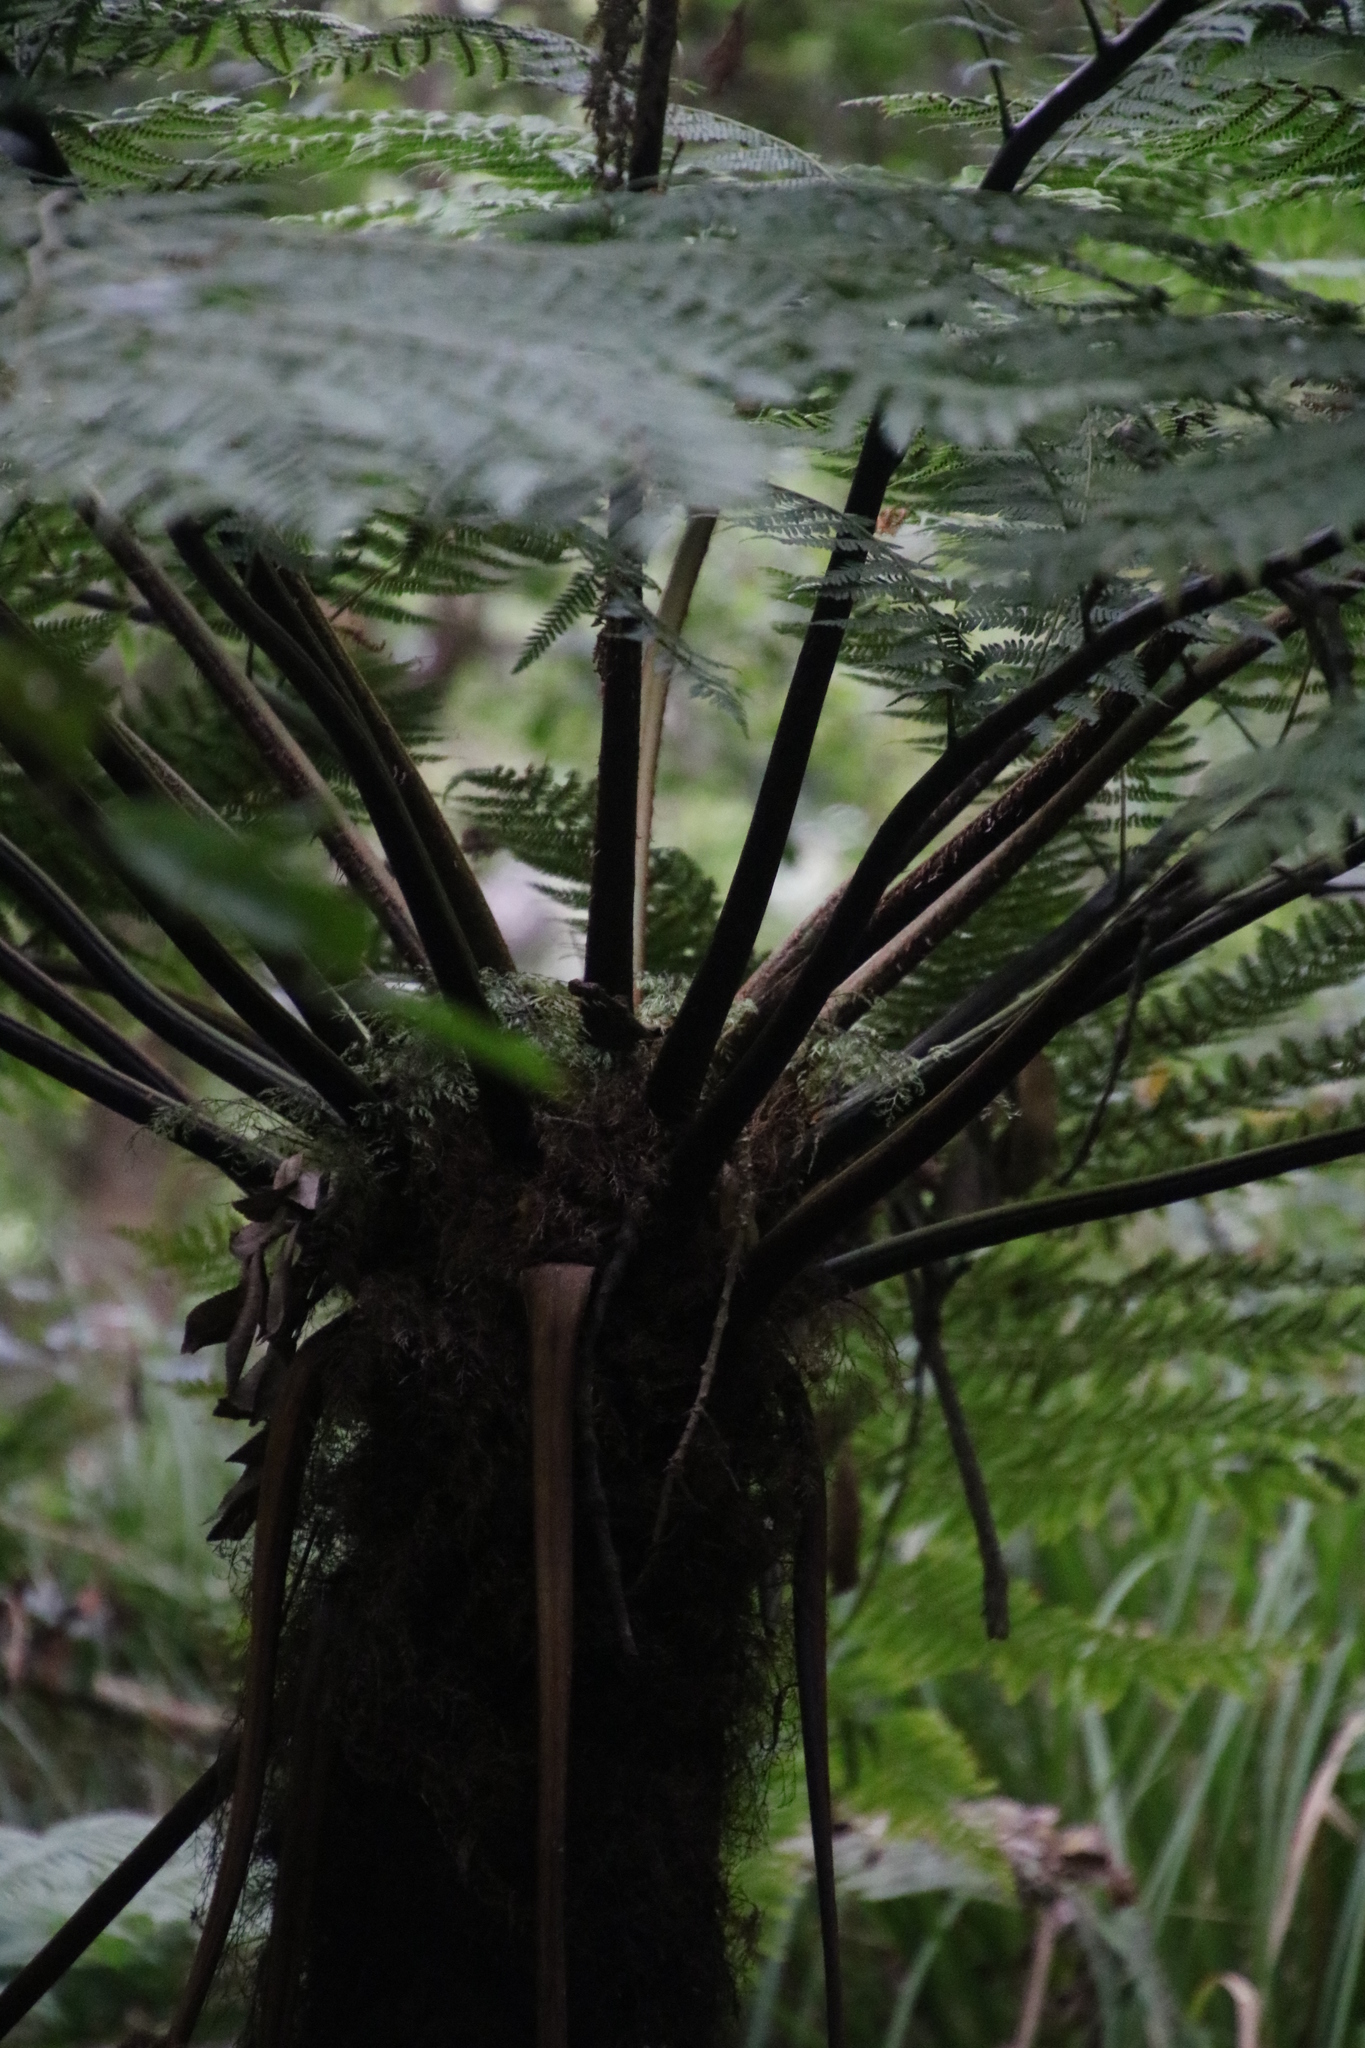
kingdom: Plantae
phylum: Tracheophyta
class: Polypodiopsida
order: Cyatheales
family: Cyatheaceae
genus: Gymnosphaera
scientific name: Gymnosphaera capensis
